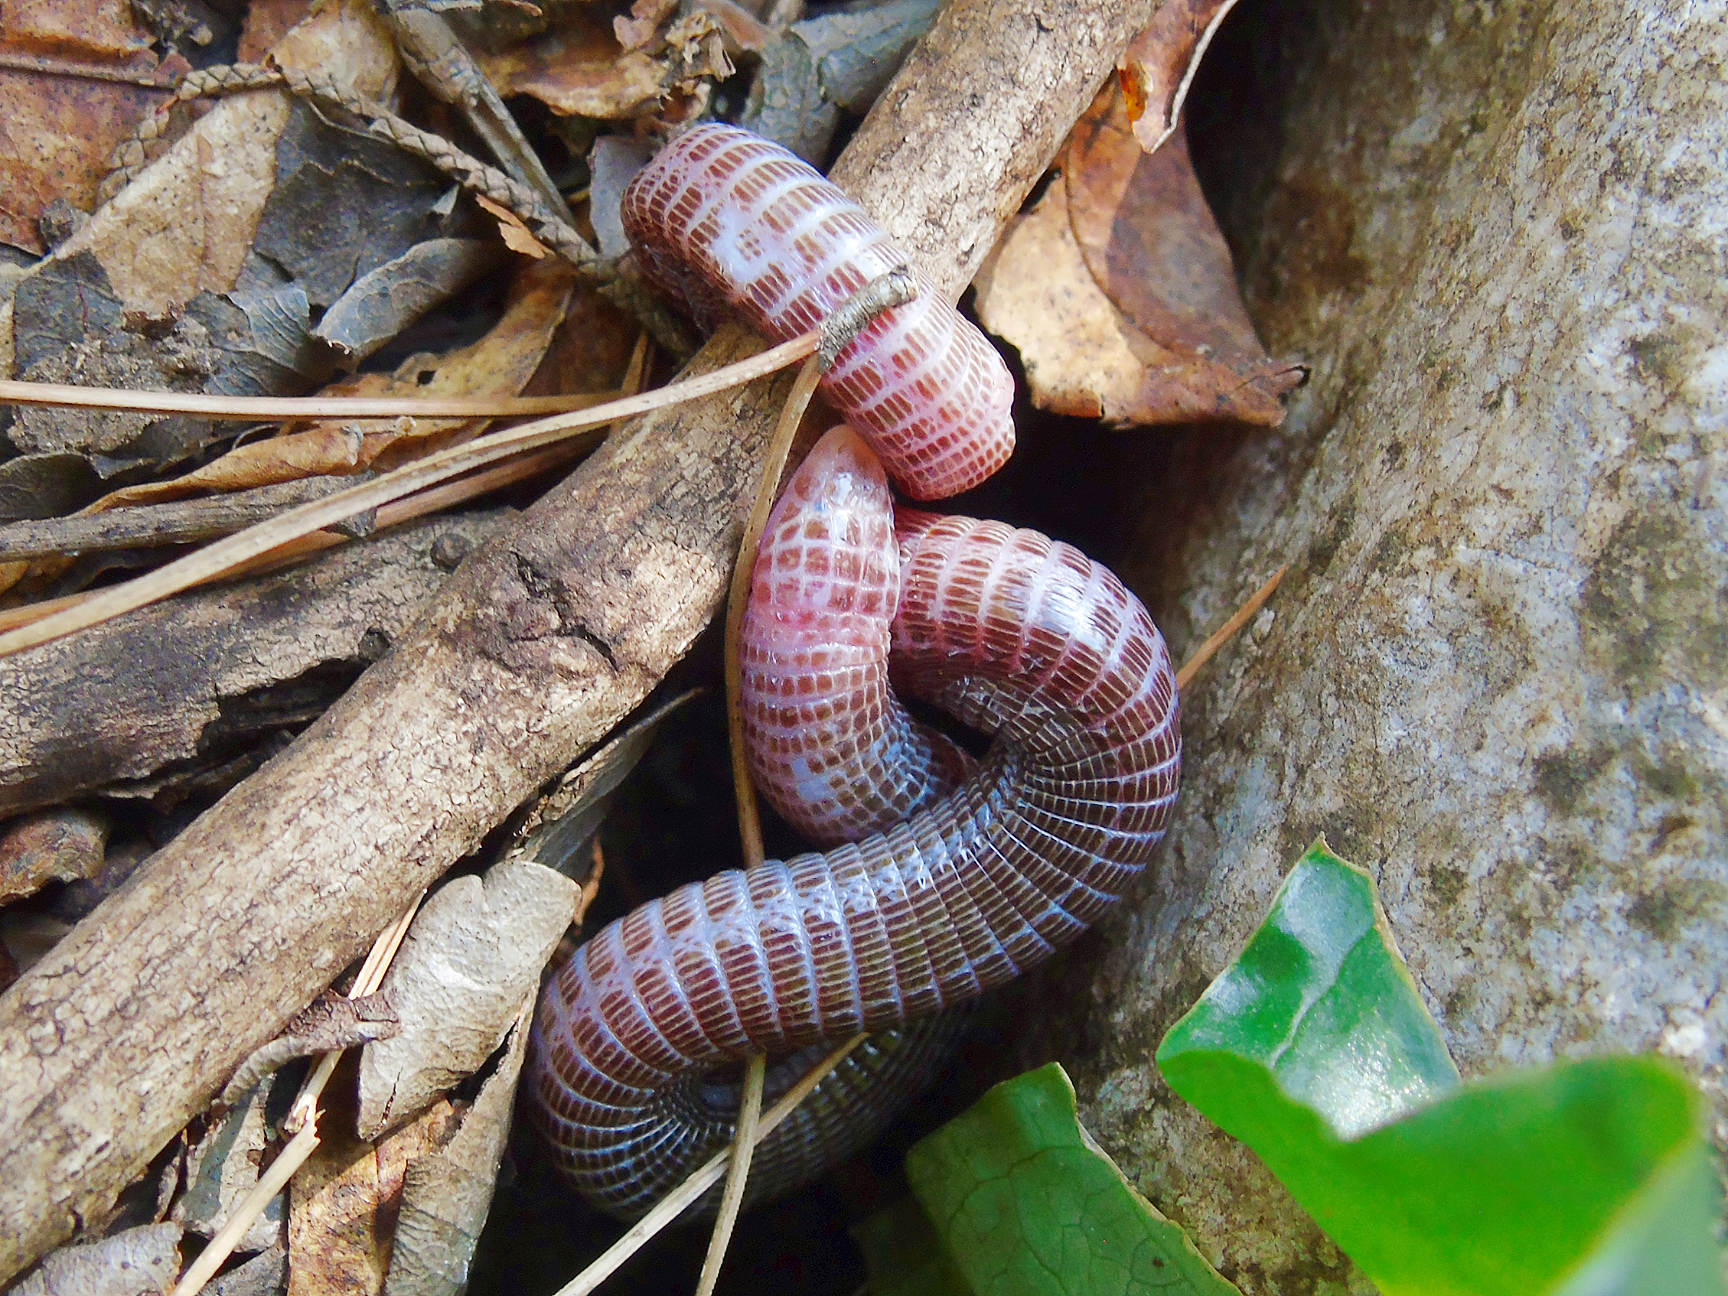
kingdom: Animalia
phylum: Chordata
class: Squamata
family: Blanidae
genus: Blanus
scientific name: Blanus aporus
